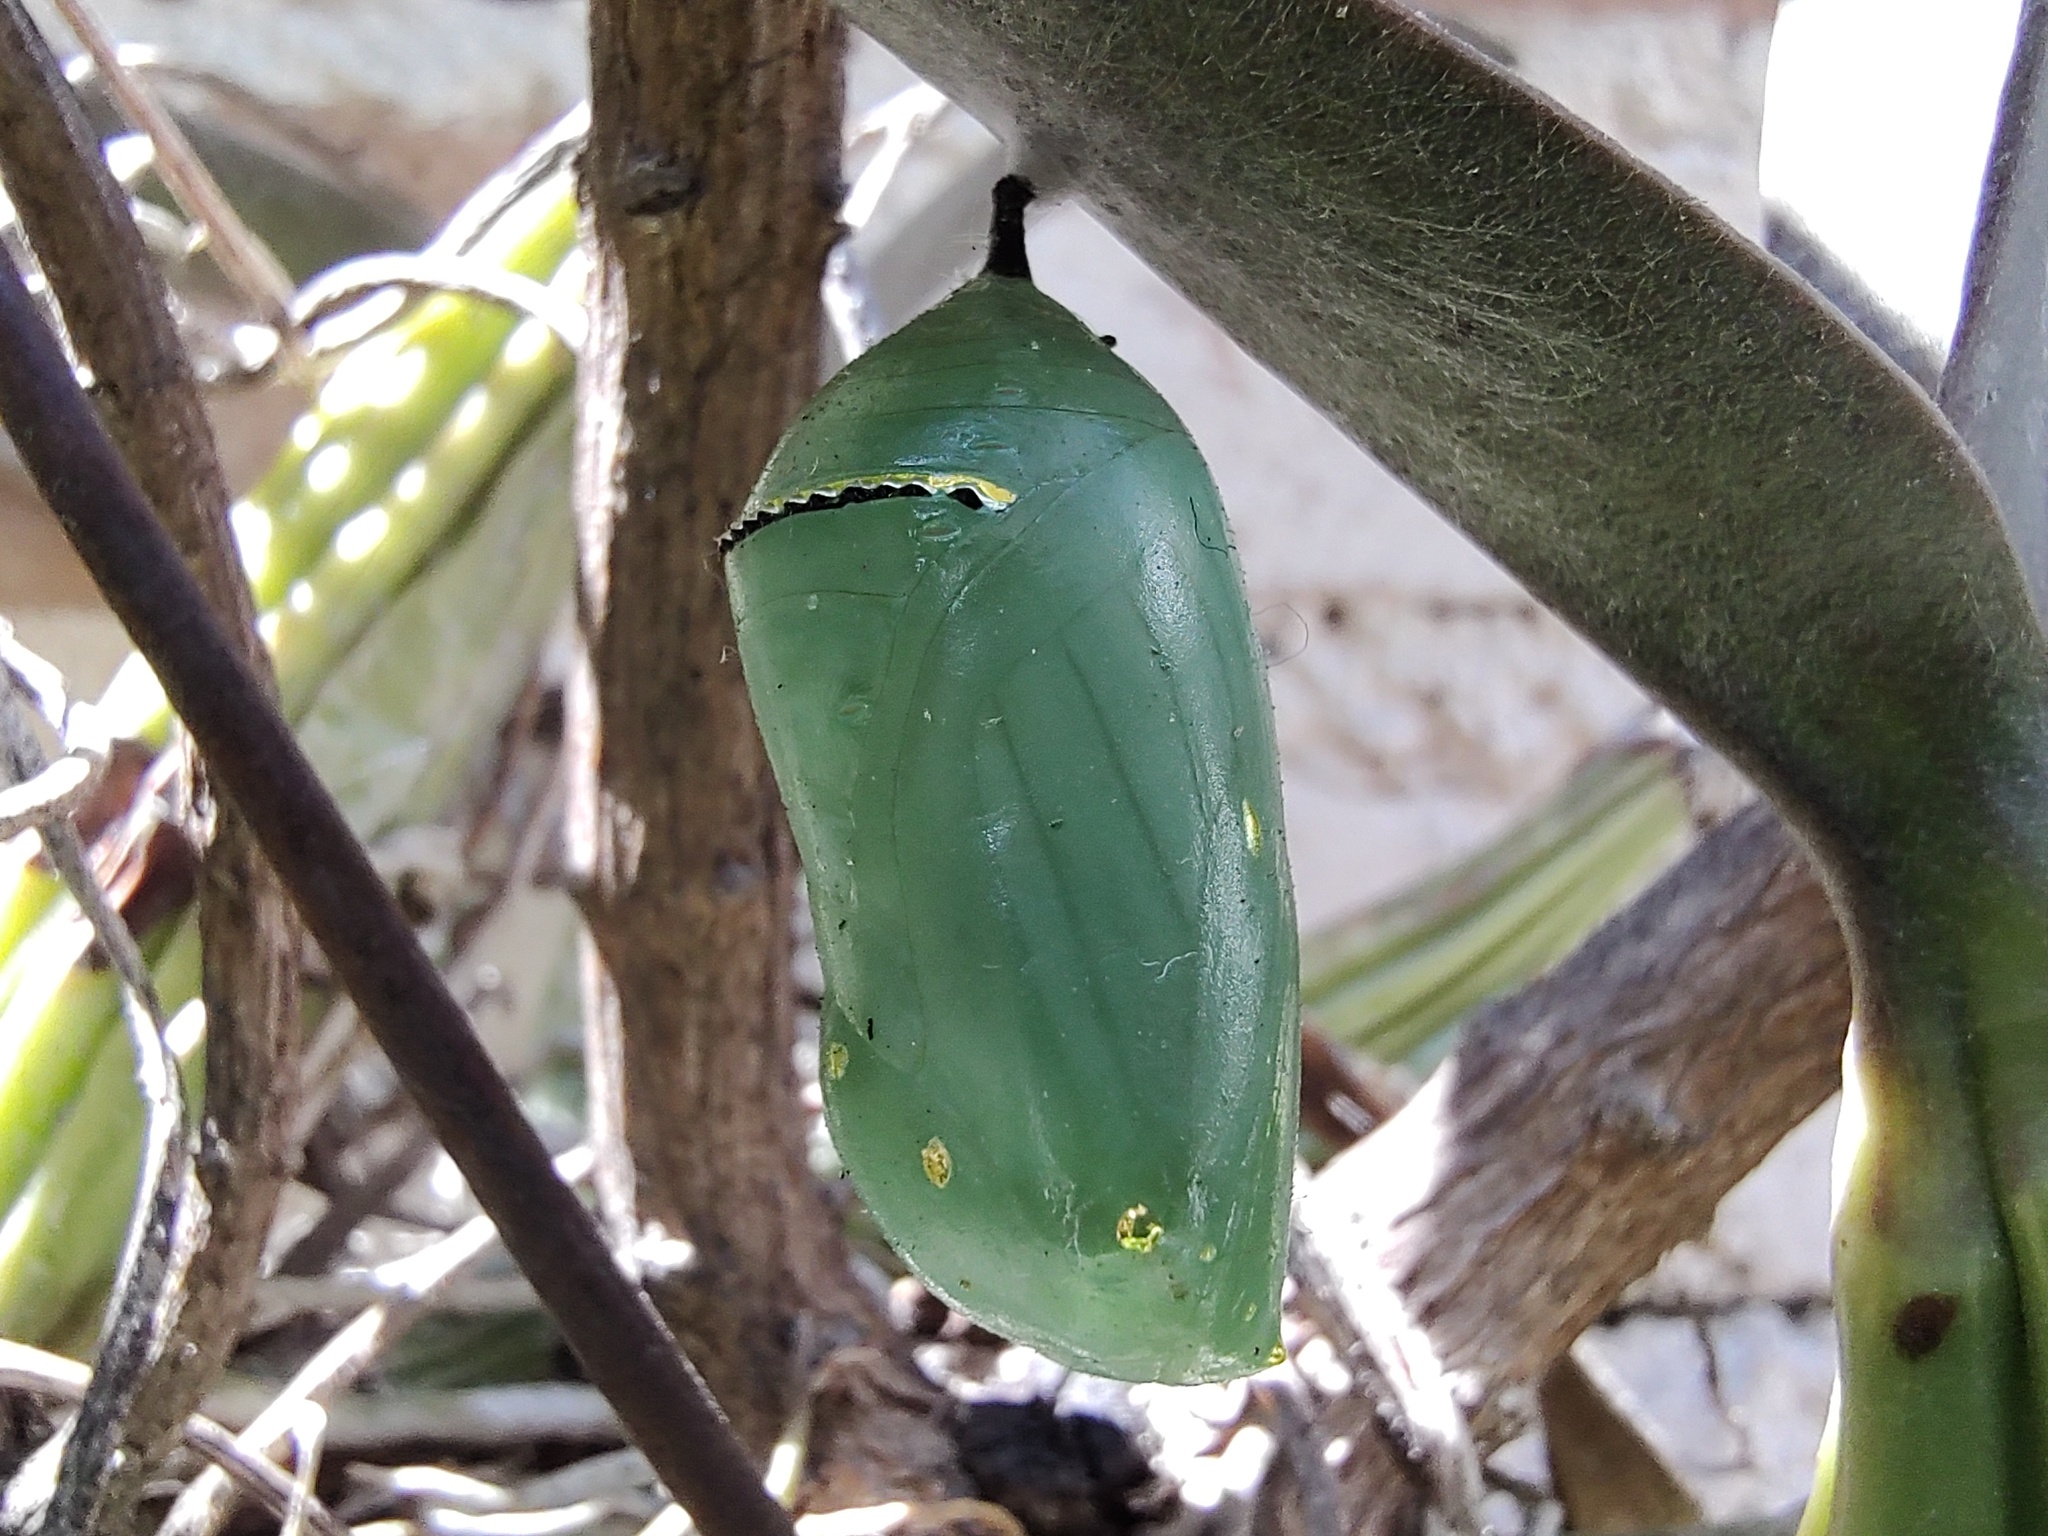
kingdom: Animalia
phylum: Arthropoda
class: Insecta
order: Lepidoptera
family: Nymphalidae
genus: Danaus
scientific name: Danaus plexippus
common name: Monarch
